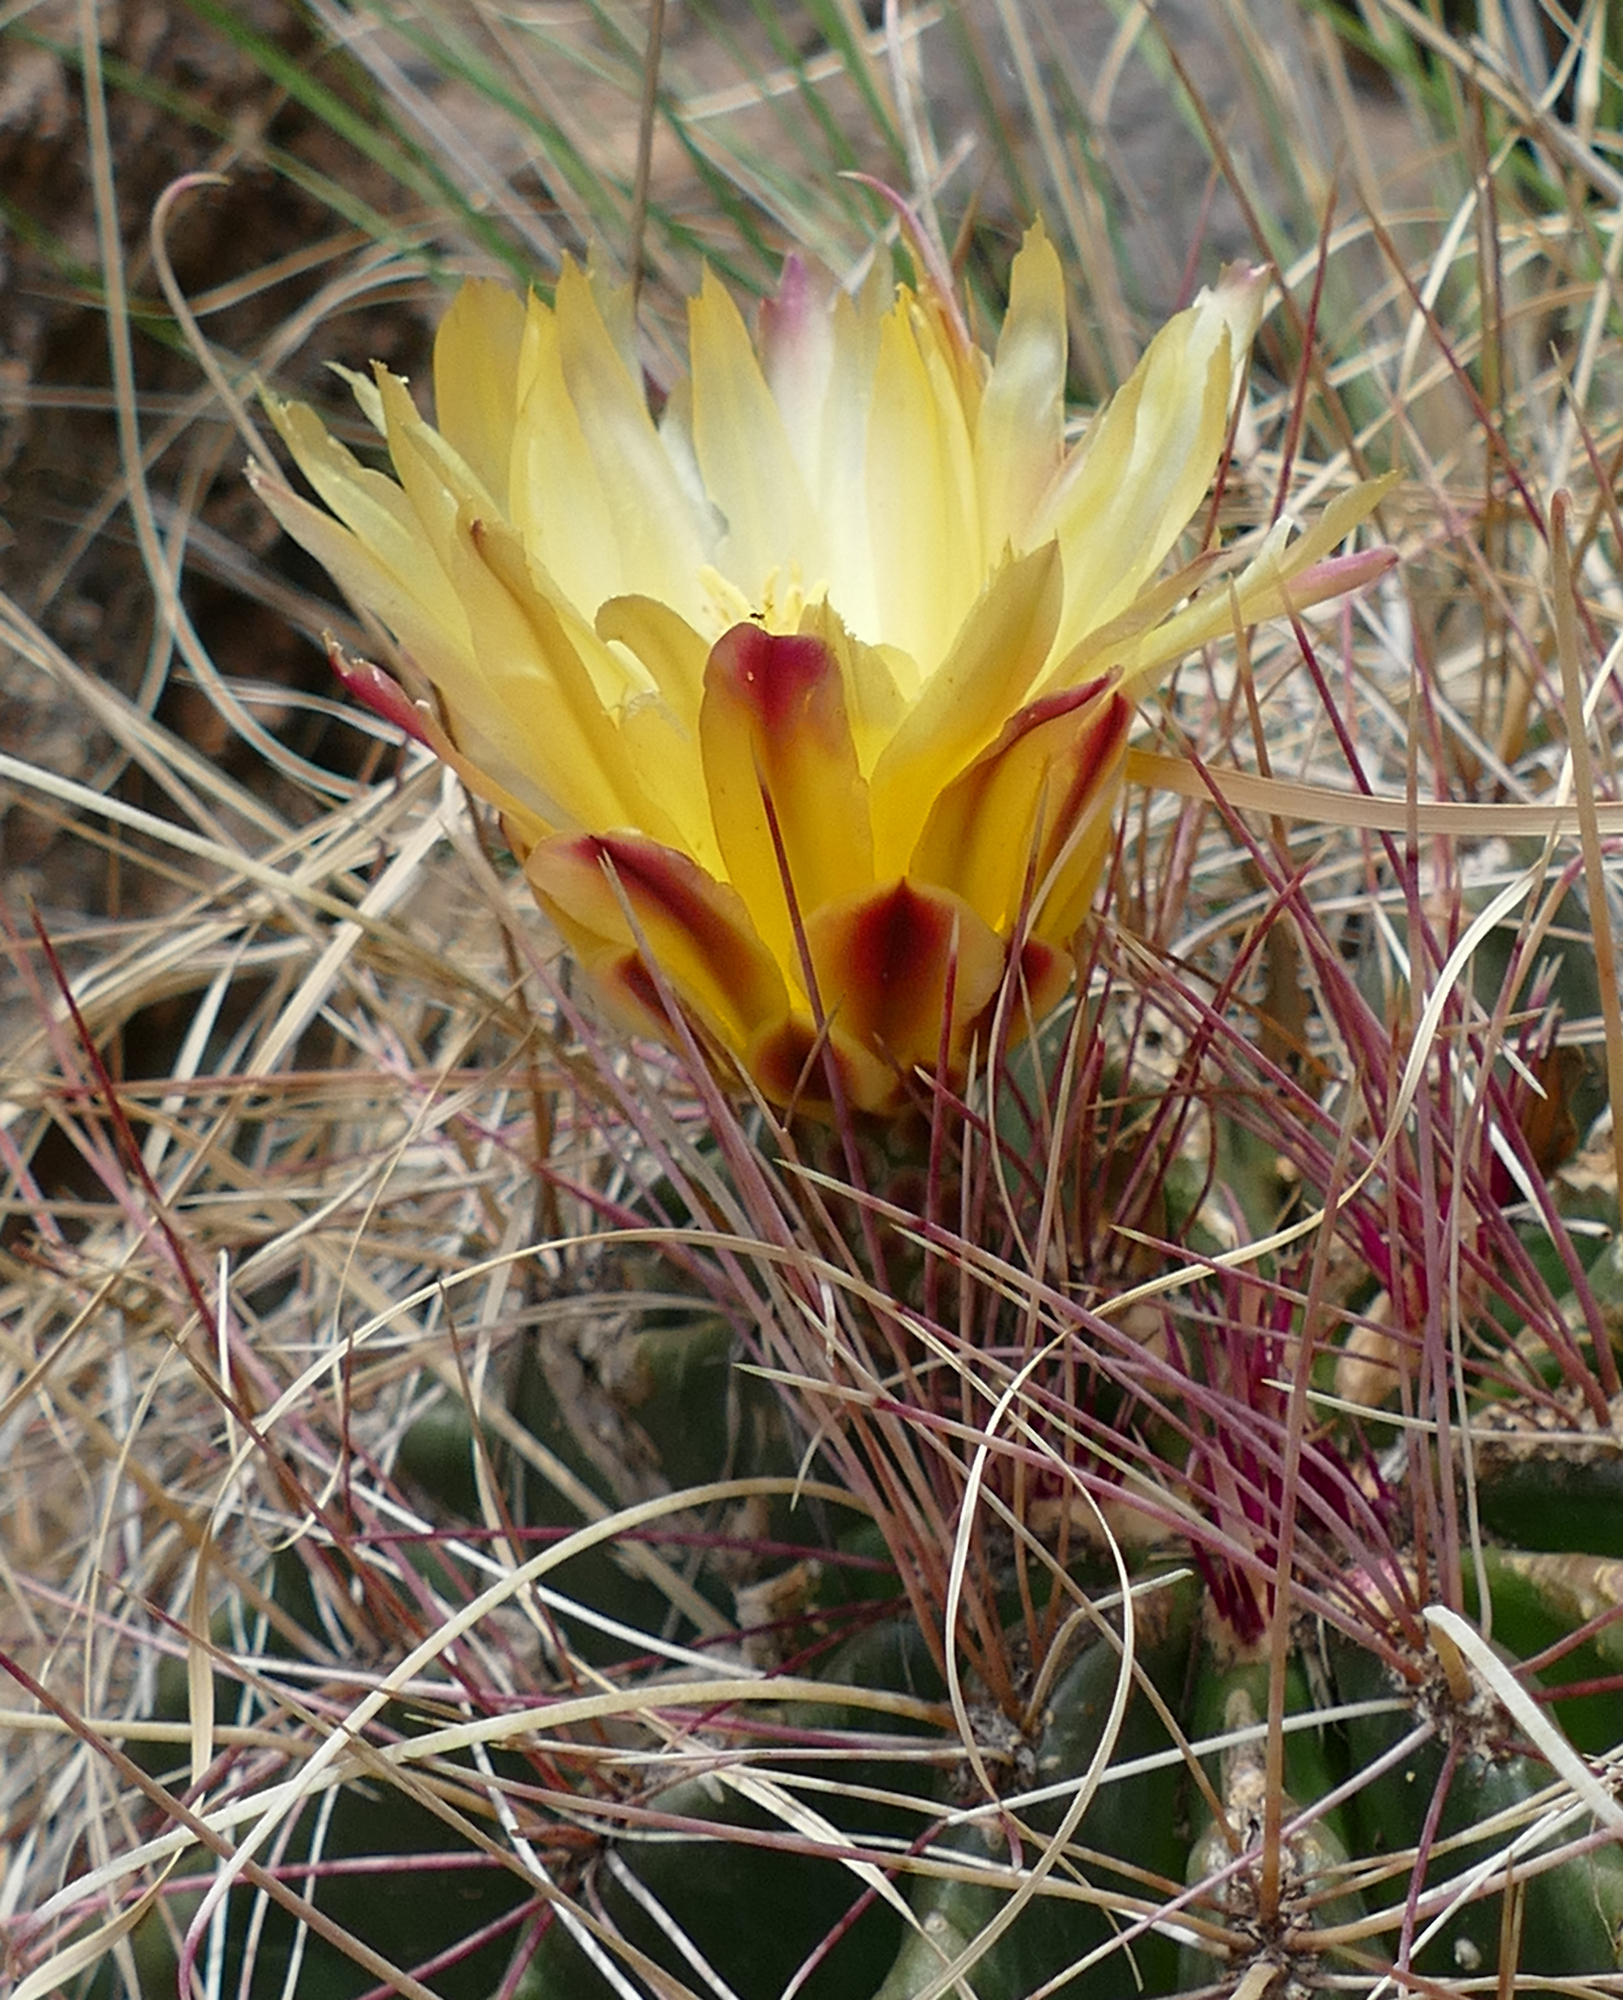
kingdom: Plantae
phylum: Tracheophyta
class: Magnoliopsida
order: Caryophyllales
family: Cactaceae
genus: Bisnaga
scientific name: Bisnaga hamatacantha
